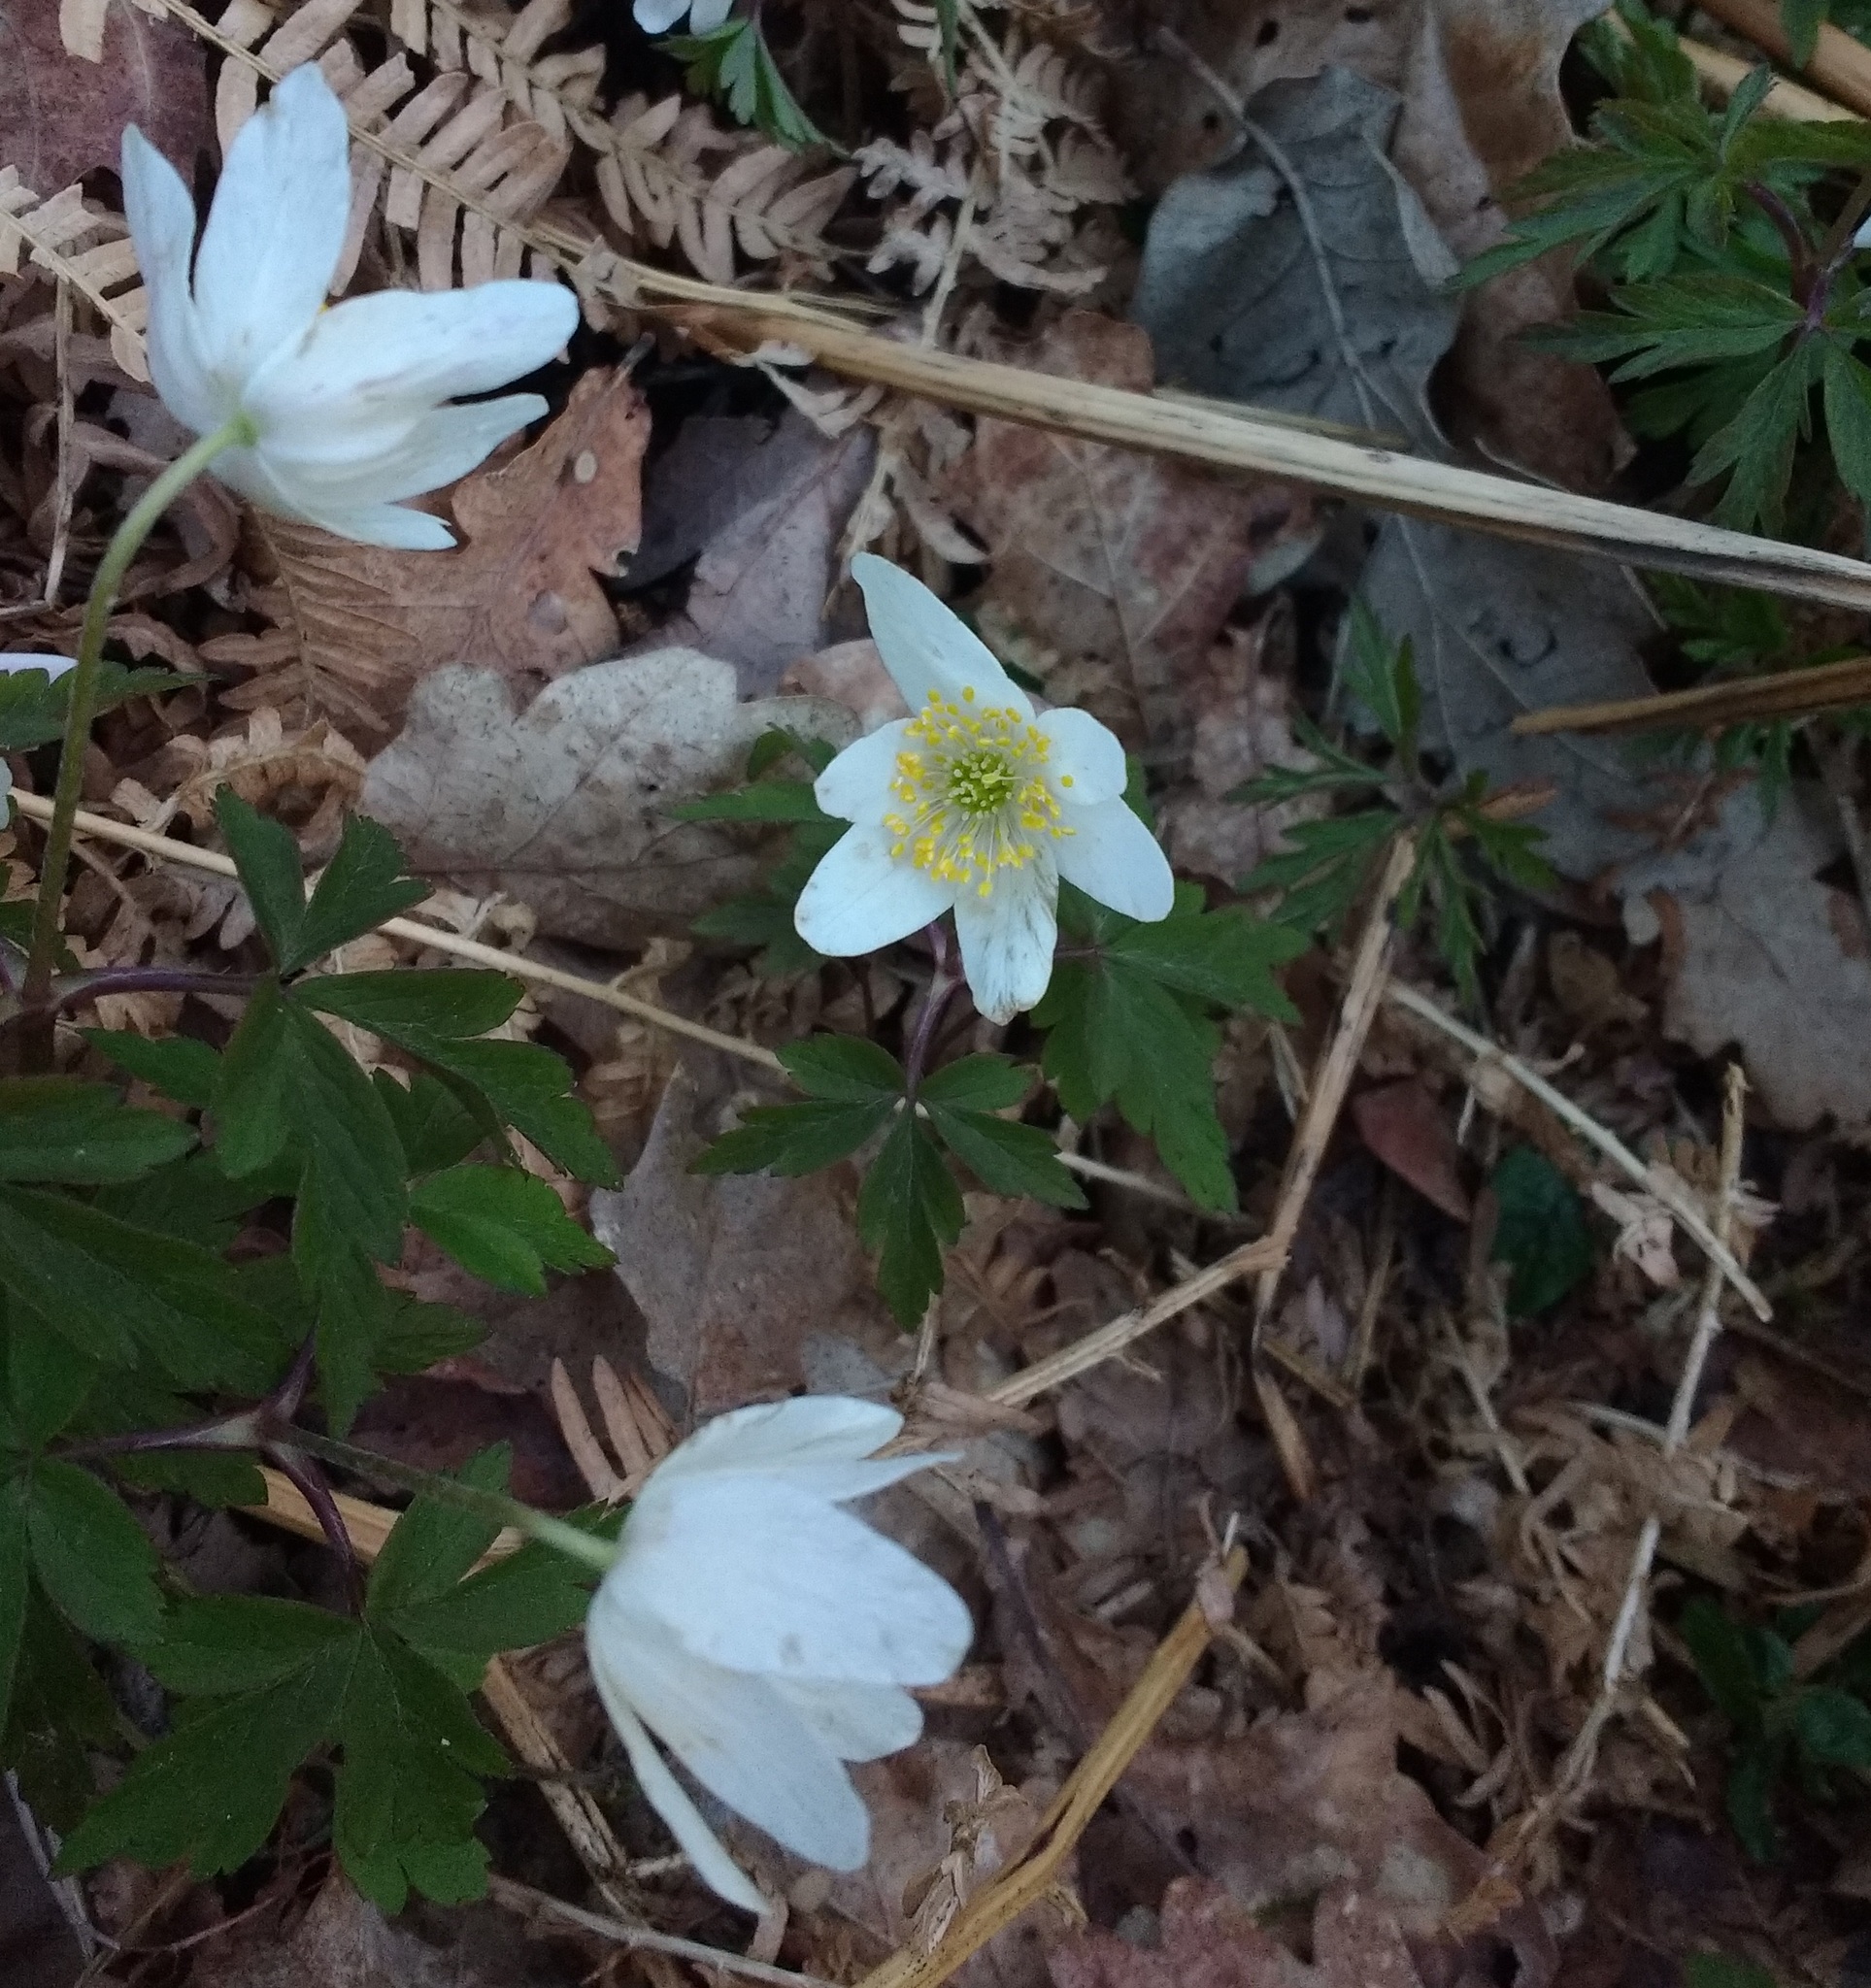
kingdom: Plantae
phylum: Tracheophyta
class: Magnoliopsida
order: Ranunculales
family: Ranunculaceae
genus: Anemone
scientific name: Anemone nemorosa
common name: Wood anemone
